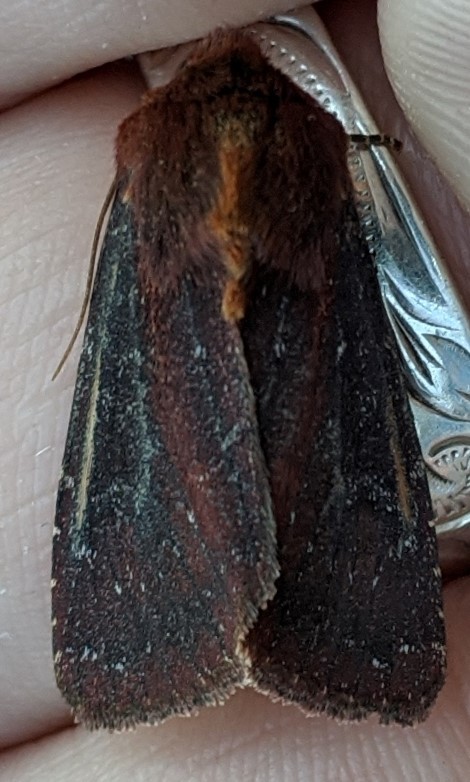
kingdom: Animalia
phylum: Arthropoda
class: Insecta
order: Lepidoptera
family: Erebidae
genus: Phragmatobia
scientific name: Phragmatobia fuliginosa
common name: Ruby tiger
